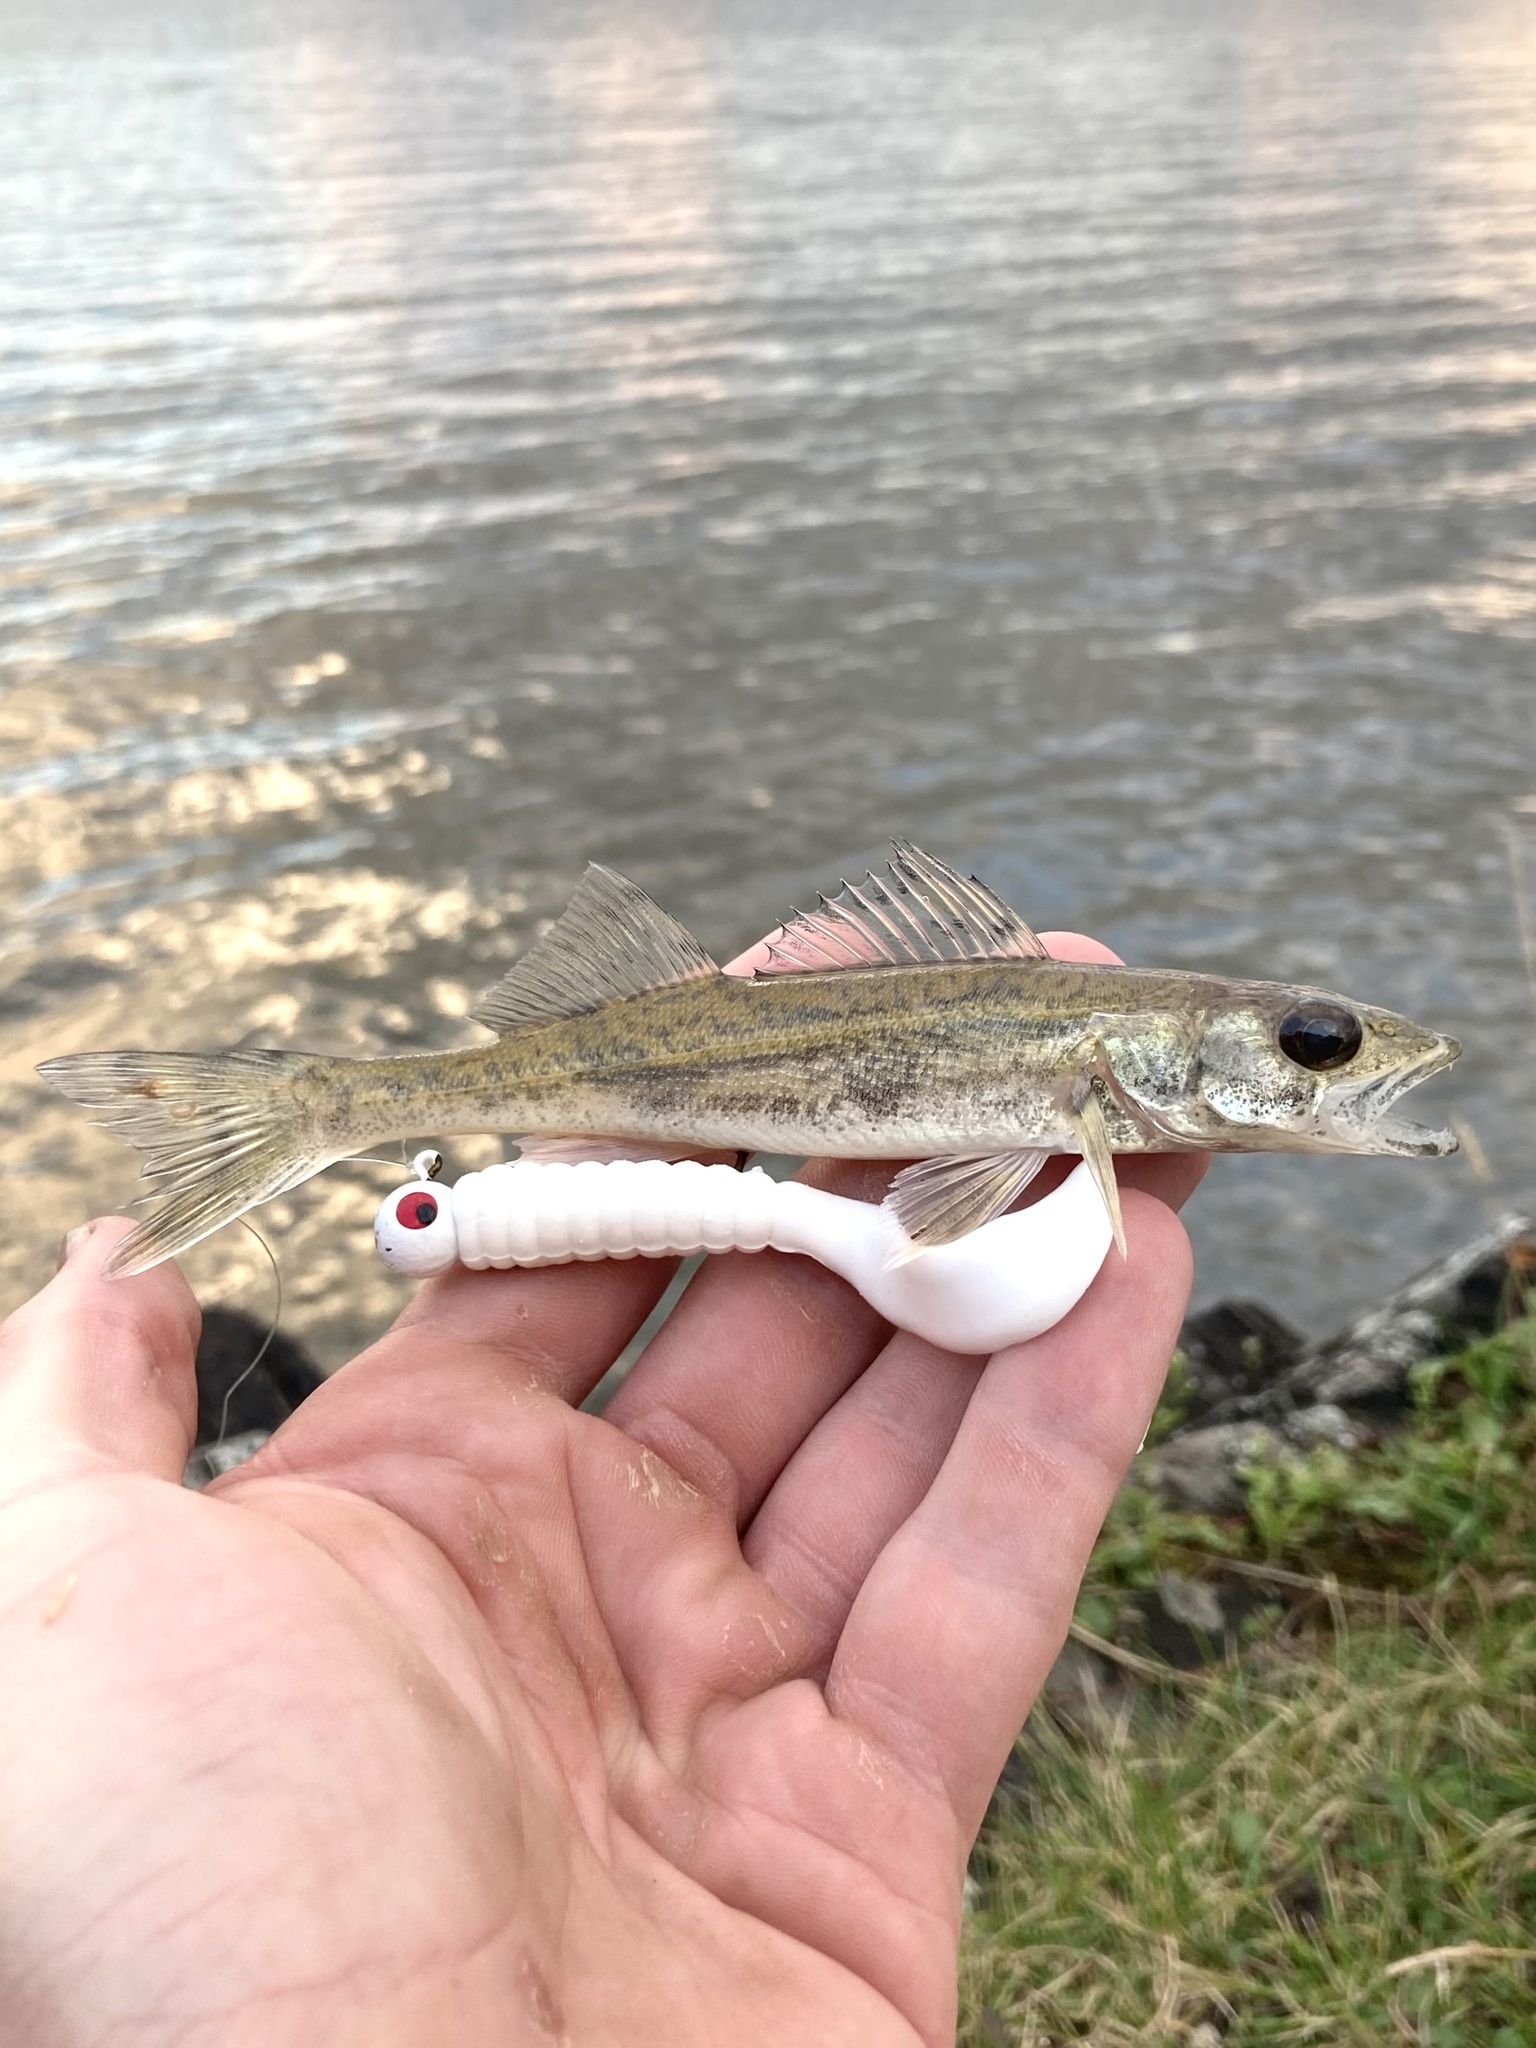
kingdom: Animalia
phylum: Chordata
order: Perciformes
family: Percidae
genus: Sander
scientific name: Sander canadensis
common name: Sauger
